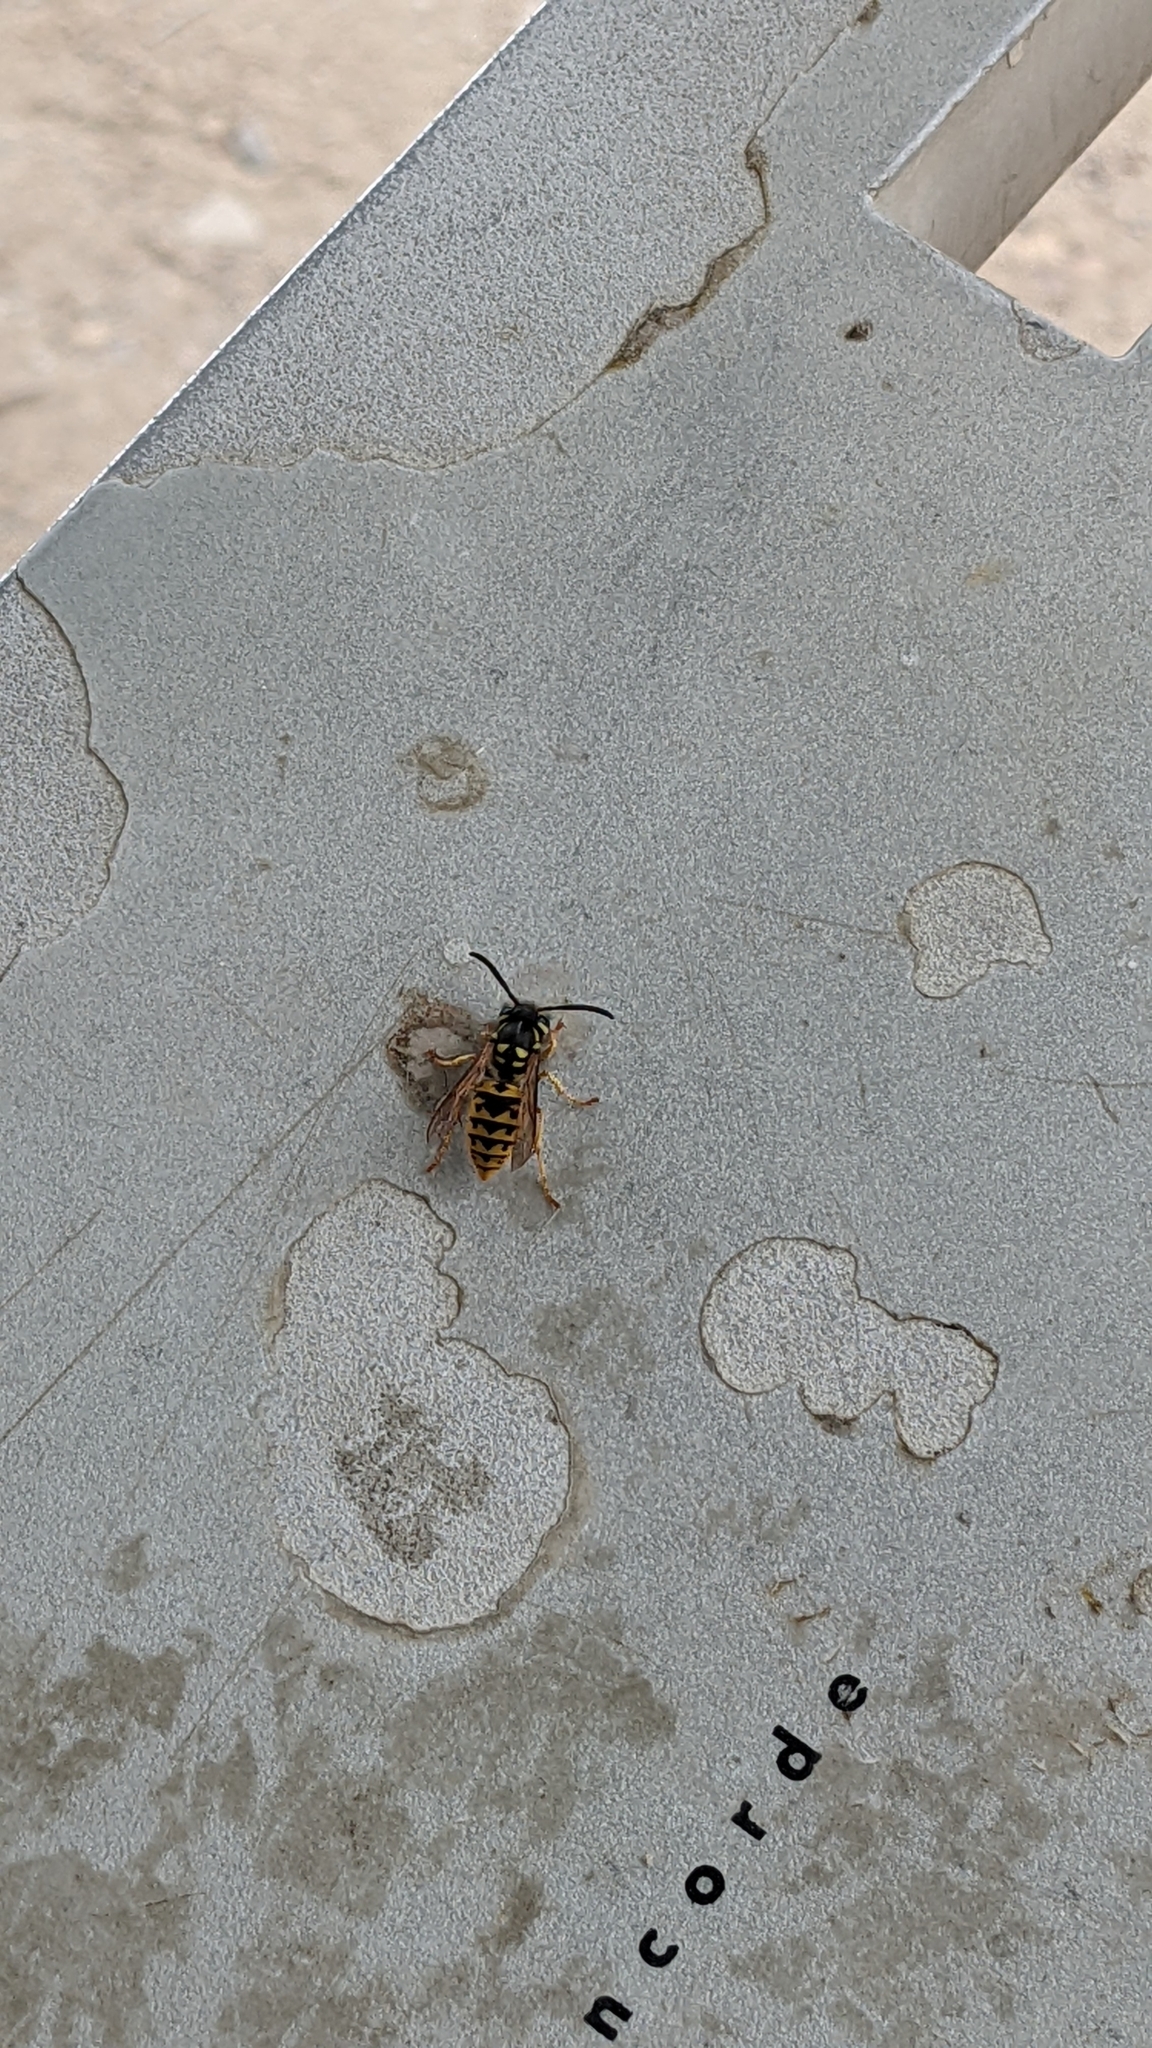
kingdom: Animalia
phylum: Arthropoda
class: Insecta
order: Hymenoptera
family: Vespidae
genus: Vespula
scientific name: Vespula germanica
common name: German wasp
